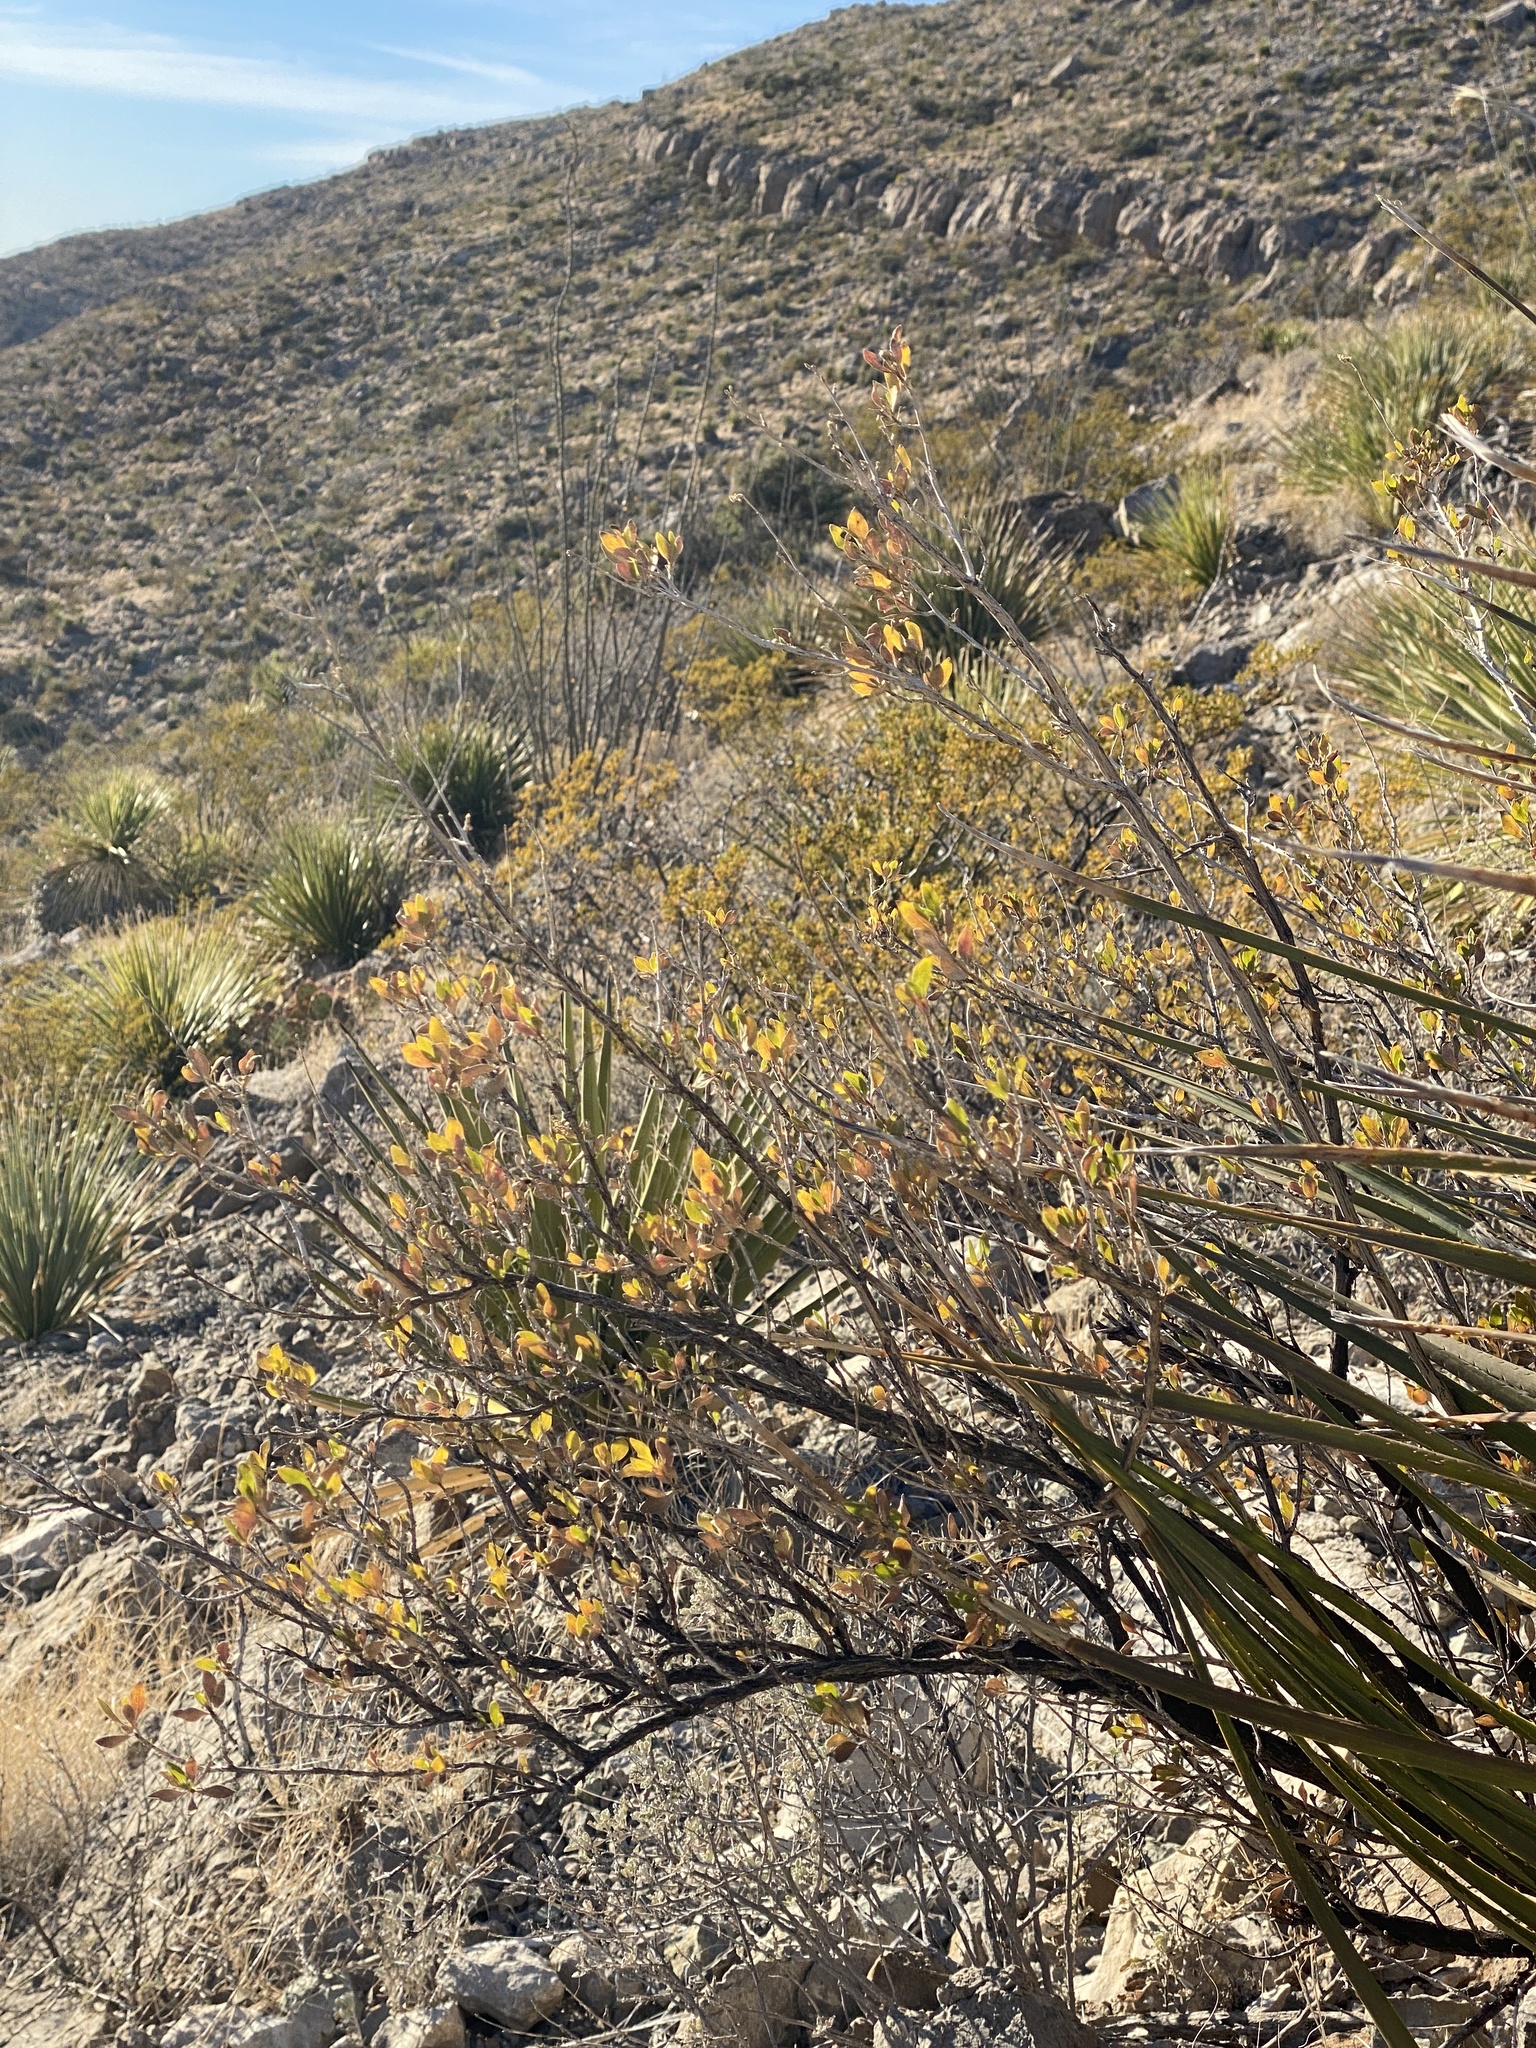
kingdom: Plantae
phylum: Tracheophyta
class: Magnoliopsida
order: Asterales
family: Asteraceae
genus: Flourensia
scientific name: Flourensia cernua
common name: Varnishbush
